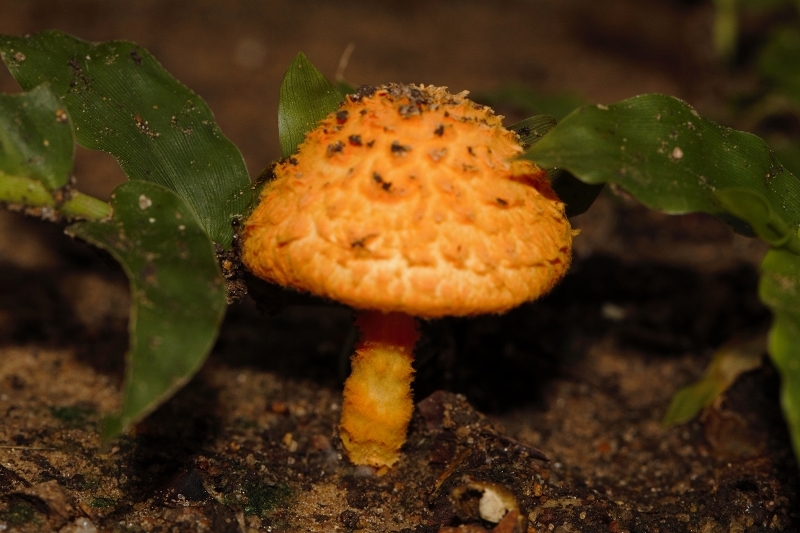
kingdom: Fungi
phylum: Basidiomycota
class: Agaricomycetes
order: Agaricales
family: Agaricaceae
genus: Agaricus
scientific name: Agaricus trisulphuratus
